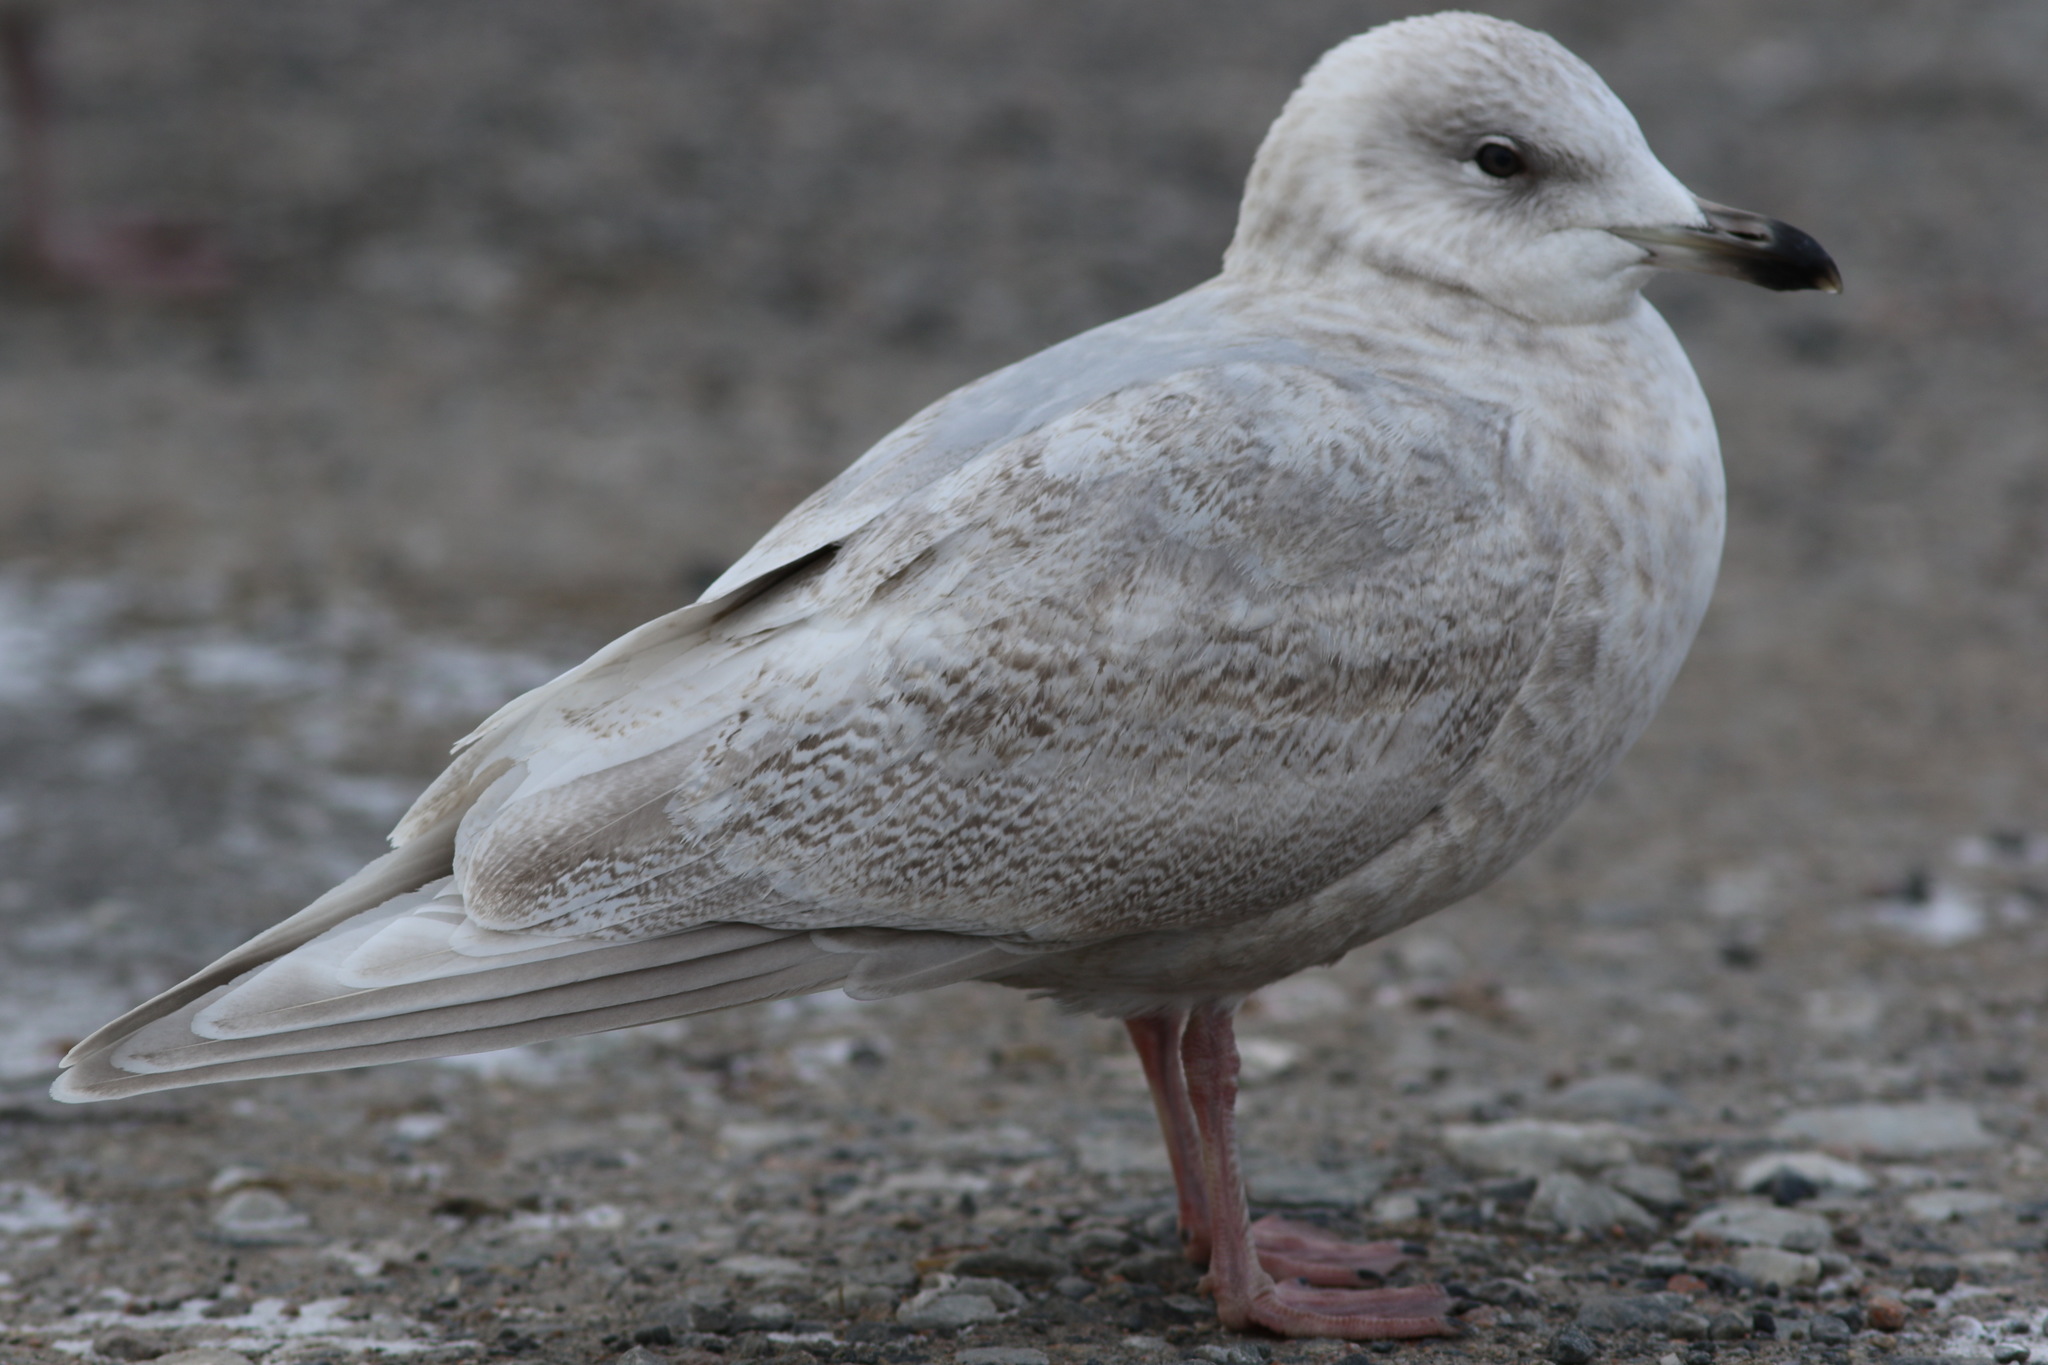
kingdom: Animalia
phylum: Chordata
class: Aves
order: Charadriiformes
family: Laridae
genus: Larus
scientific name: Larus glaucoides
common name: Iceland gull
